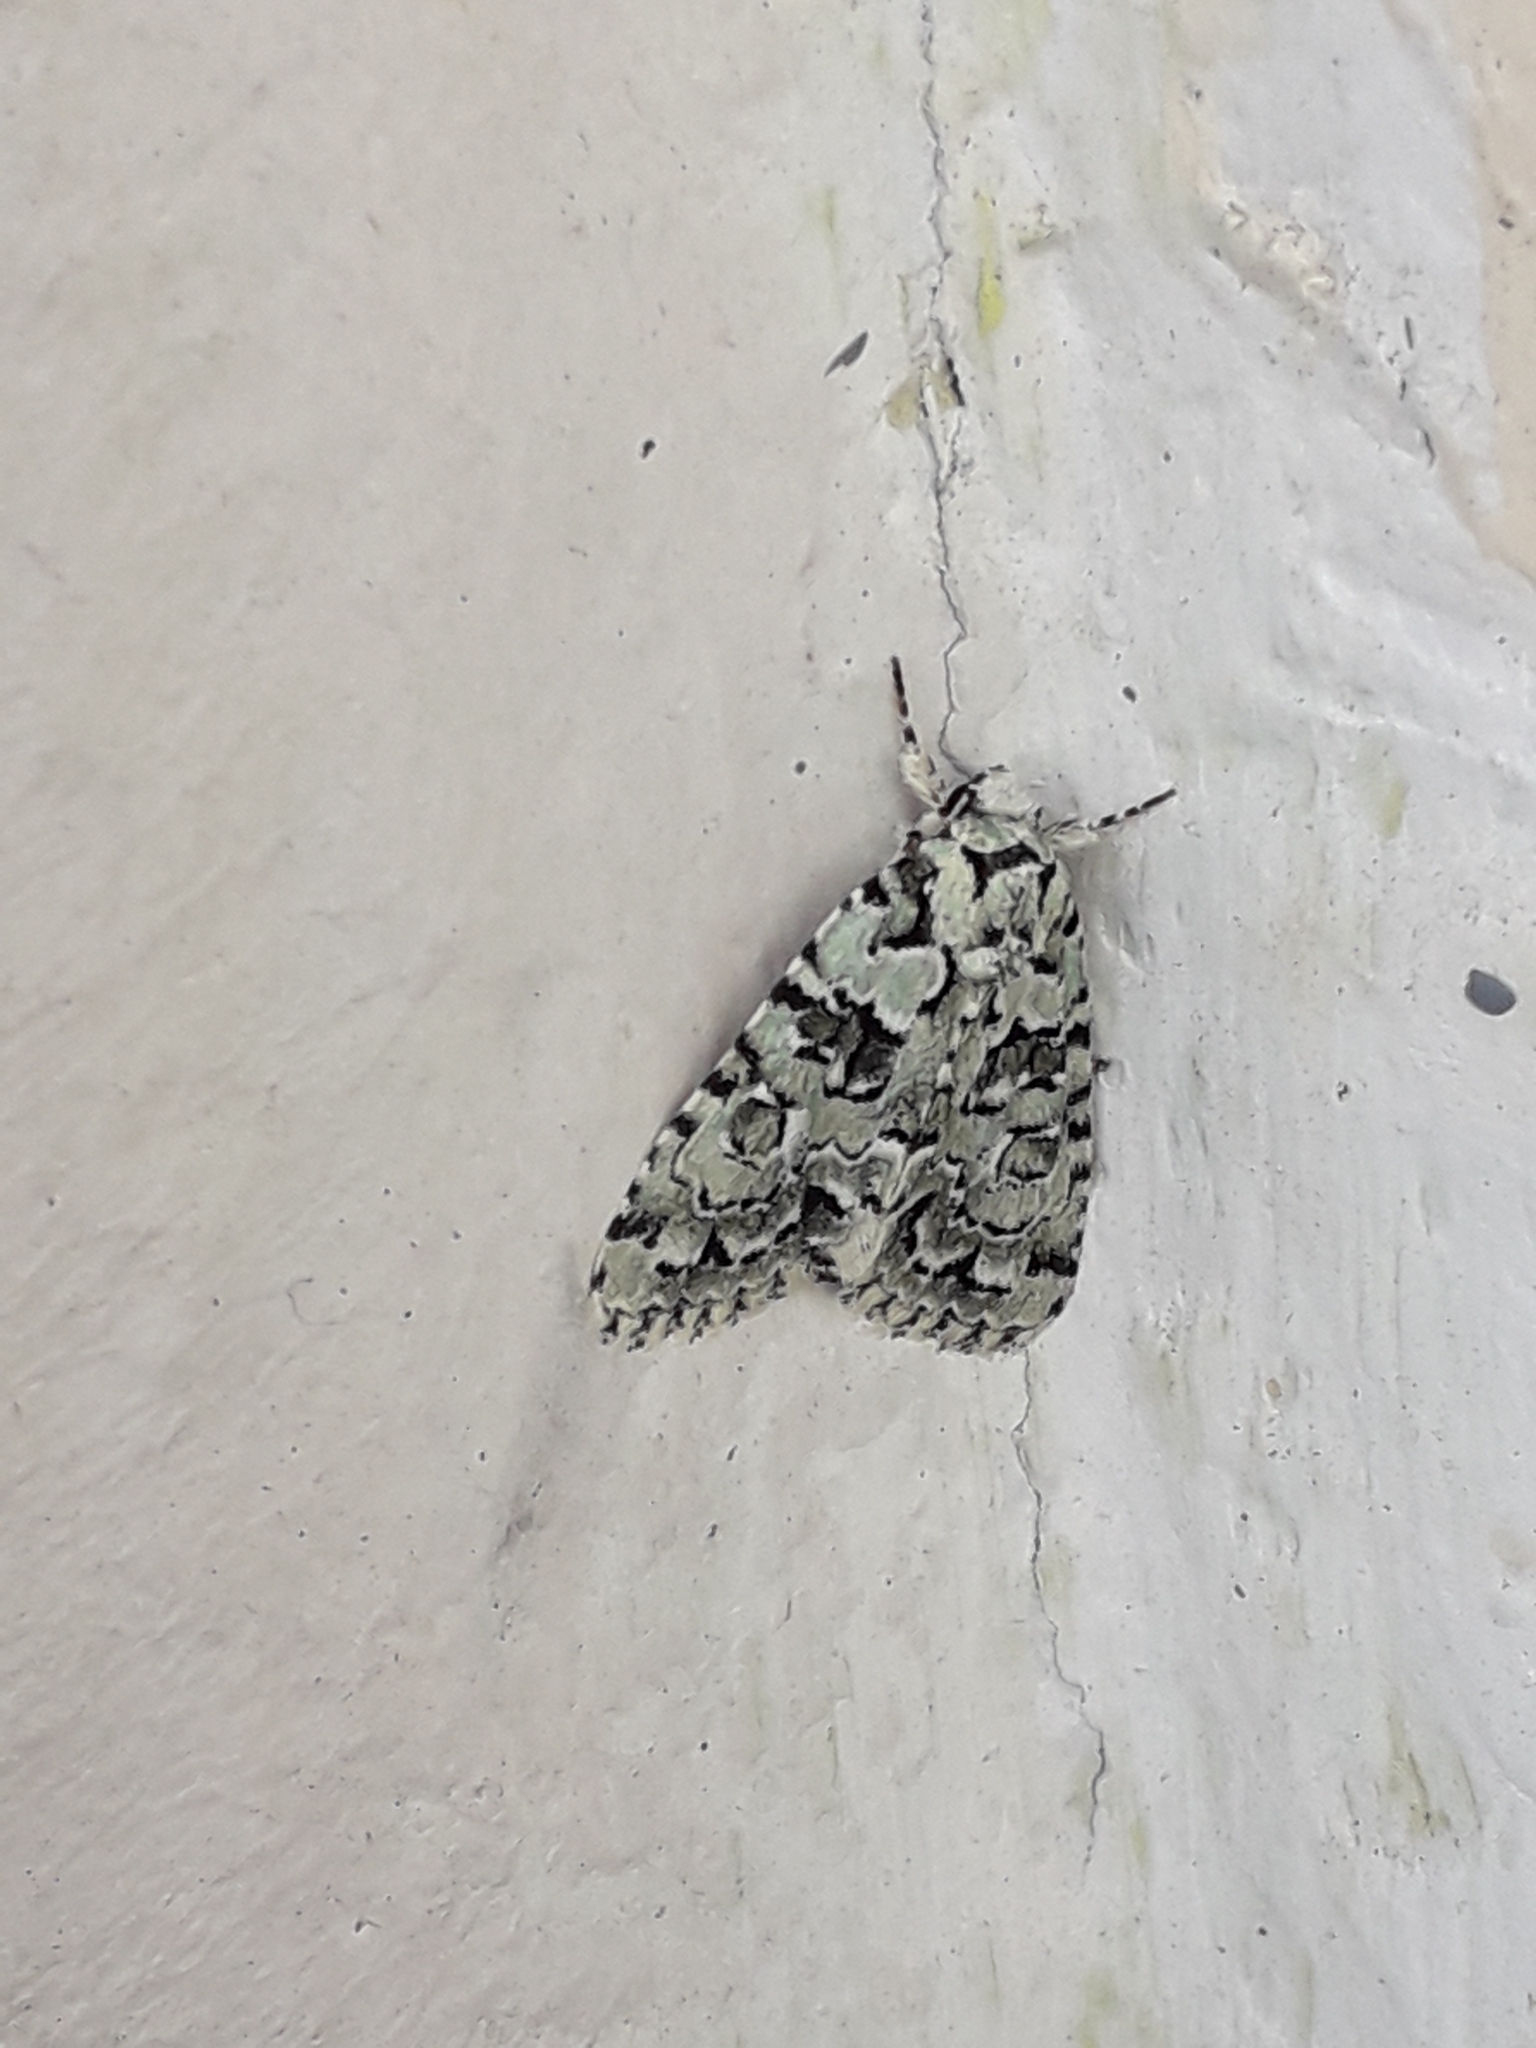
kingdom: Animalia
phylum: Arthropoda
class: Insecta
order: Lepidoptera
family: Noctuidae
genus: Nyctobrya
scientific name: Nyctobrya muralis
